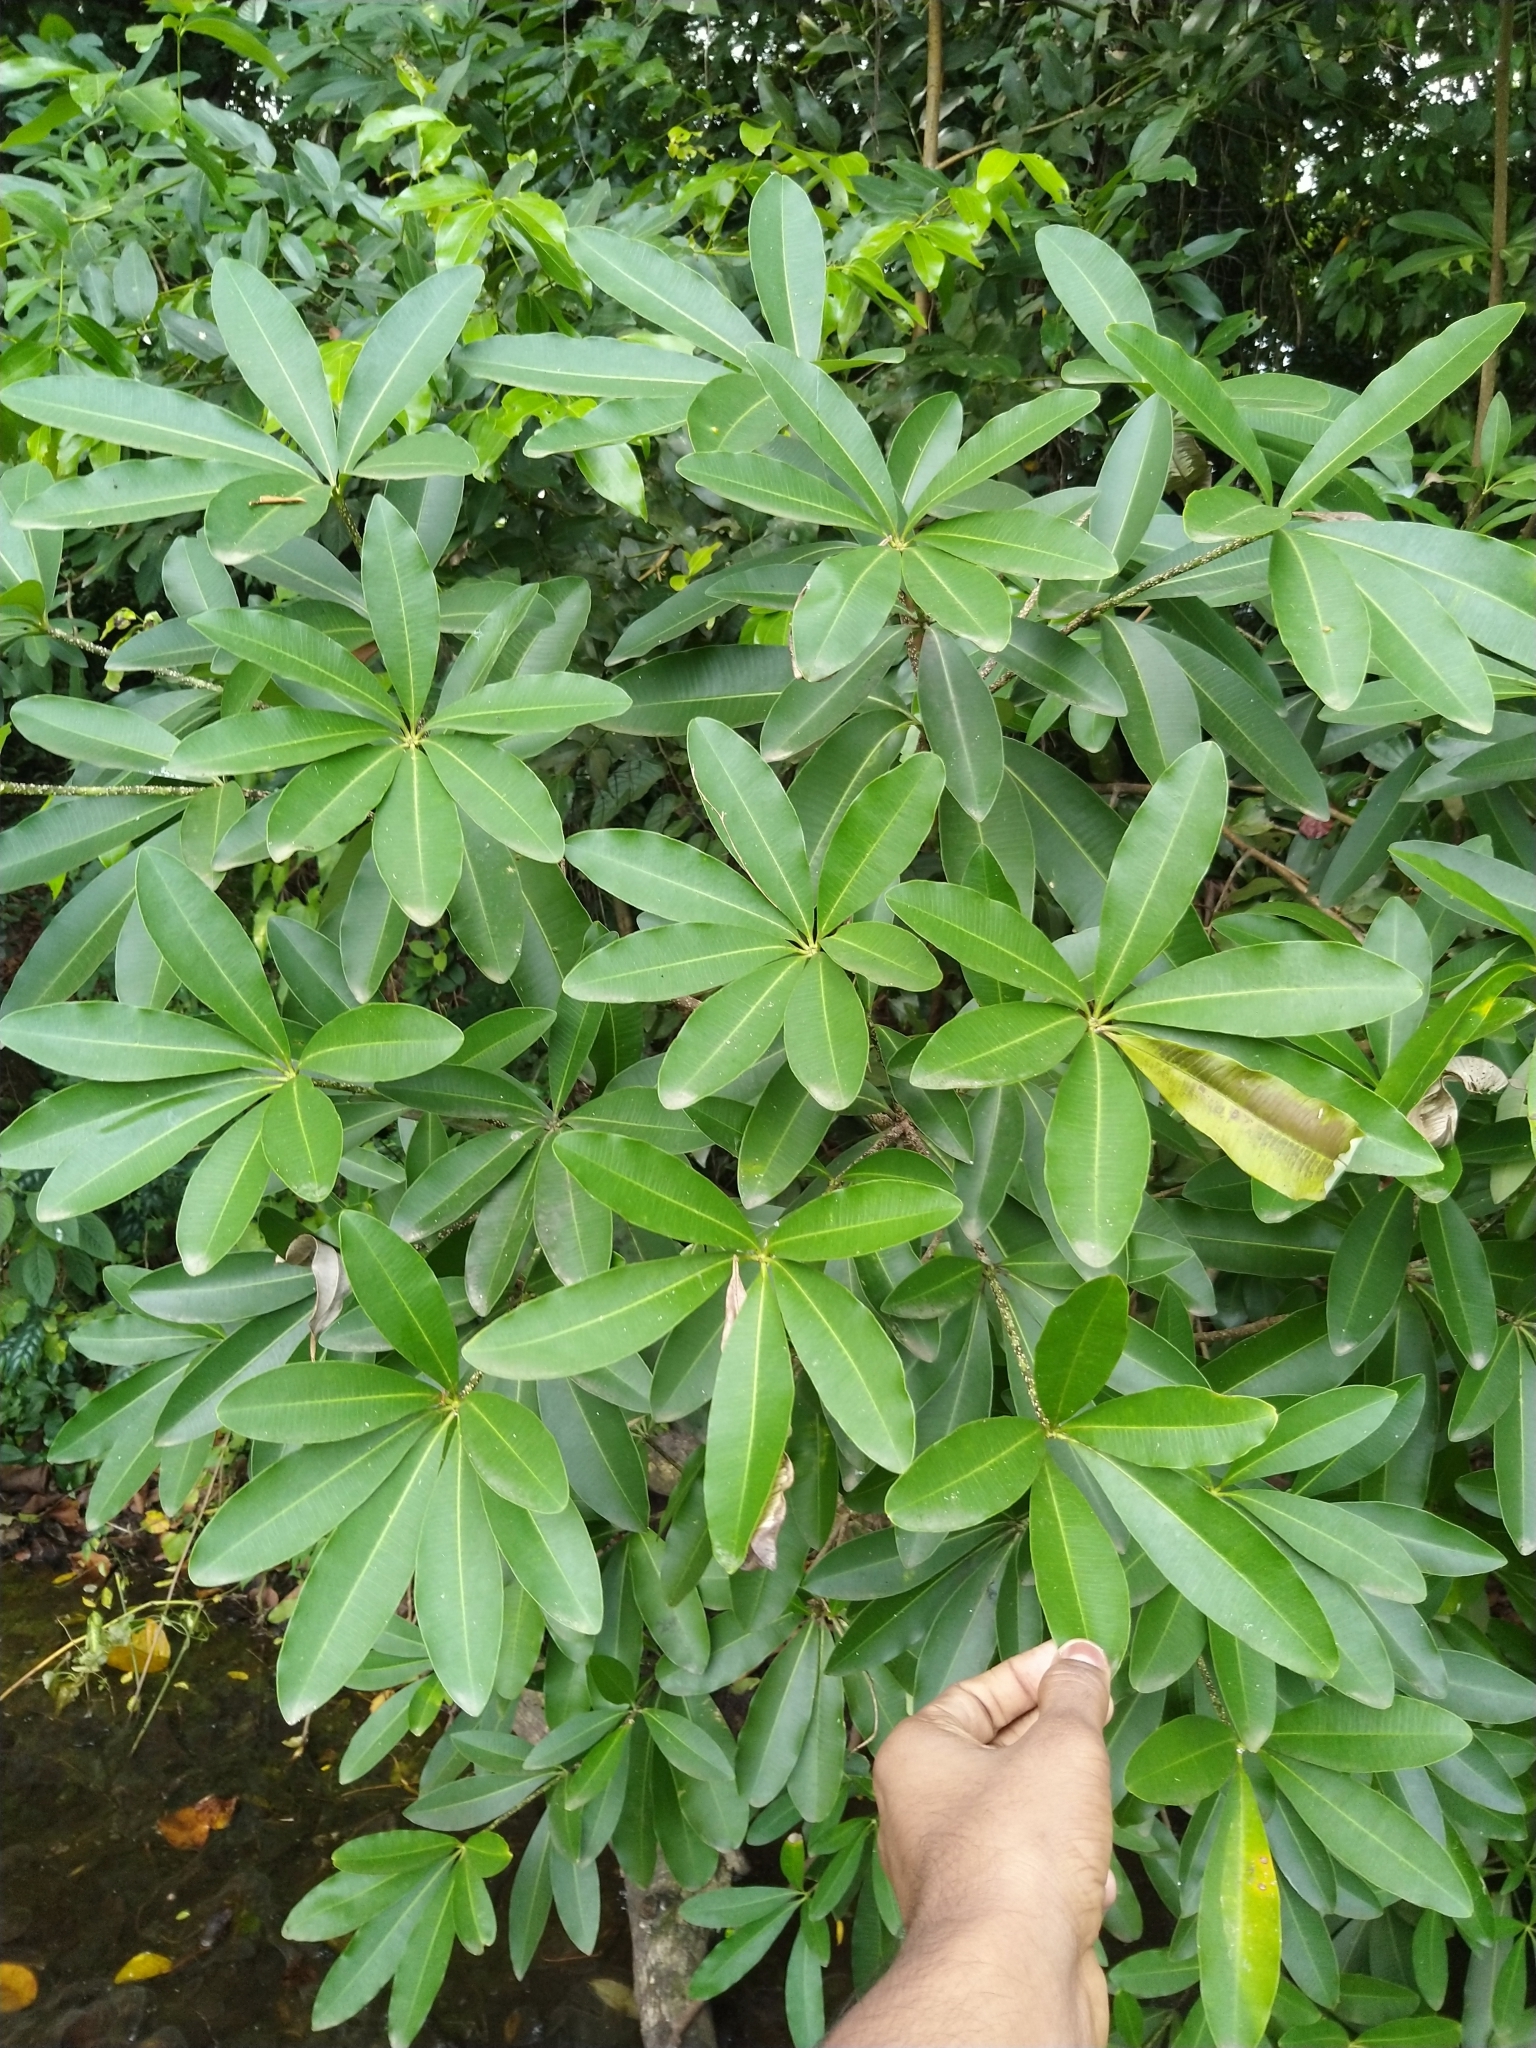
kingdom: Plantae
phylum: Tracheophyta
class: Magnoliopsida
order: Gentianales
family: Apocynaceae
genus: Alstonia
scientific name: Alstonia scholaris
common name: White cheesewood
